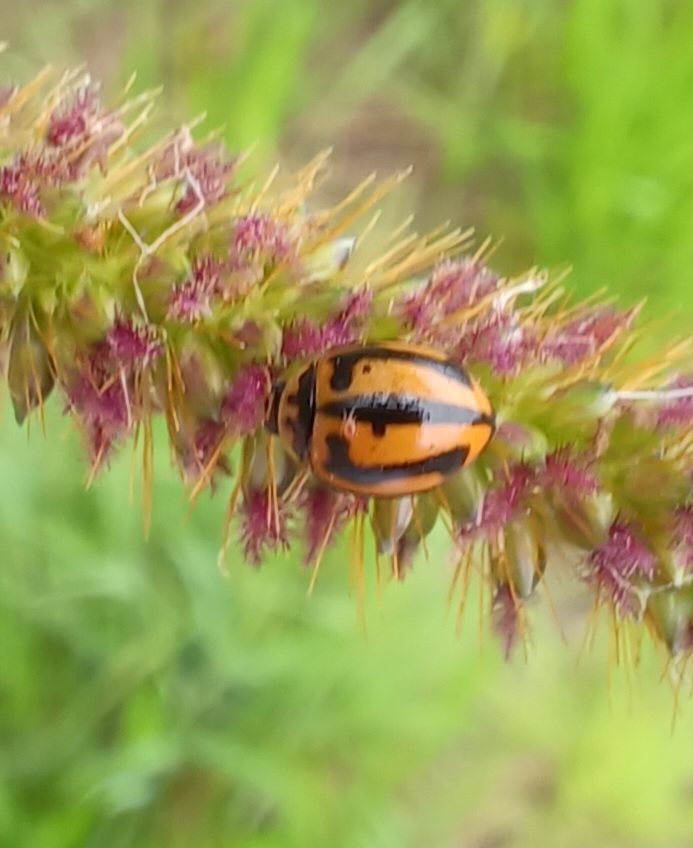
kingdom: Animalia
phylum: Arthropoda
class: Insecta
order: Coleoptera
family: Coccinellidae
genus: Micraspis
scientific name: Micraspis frenata
